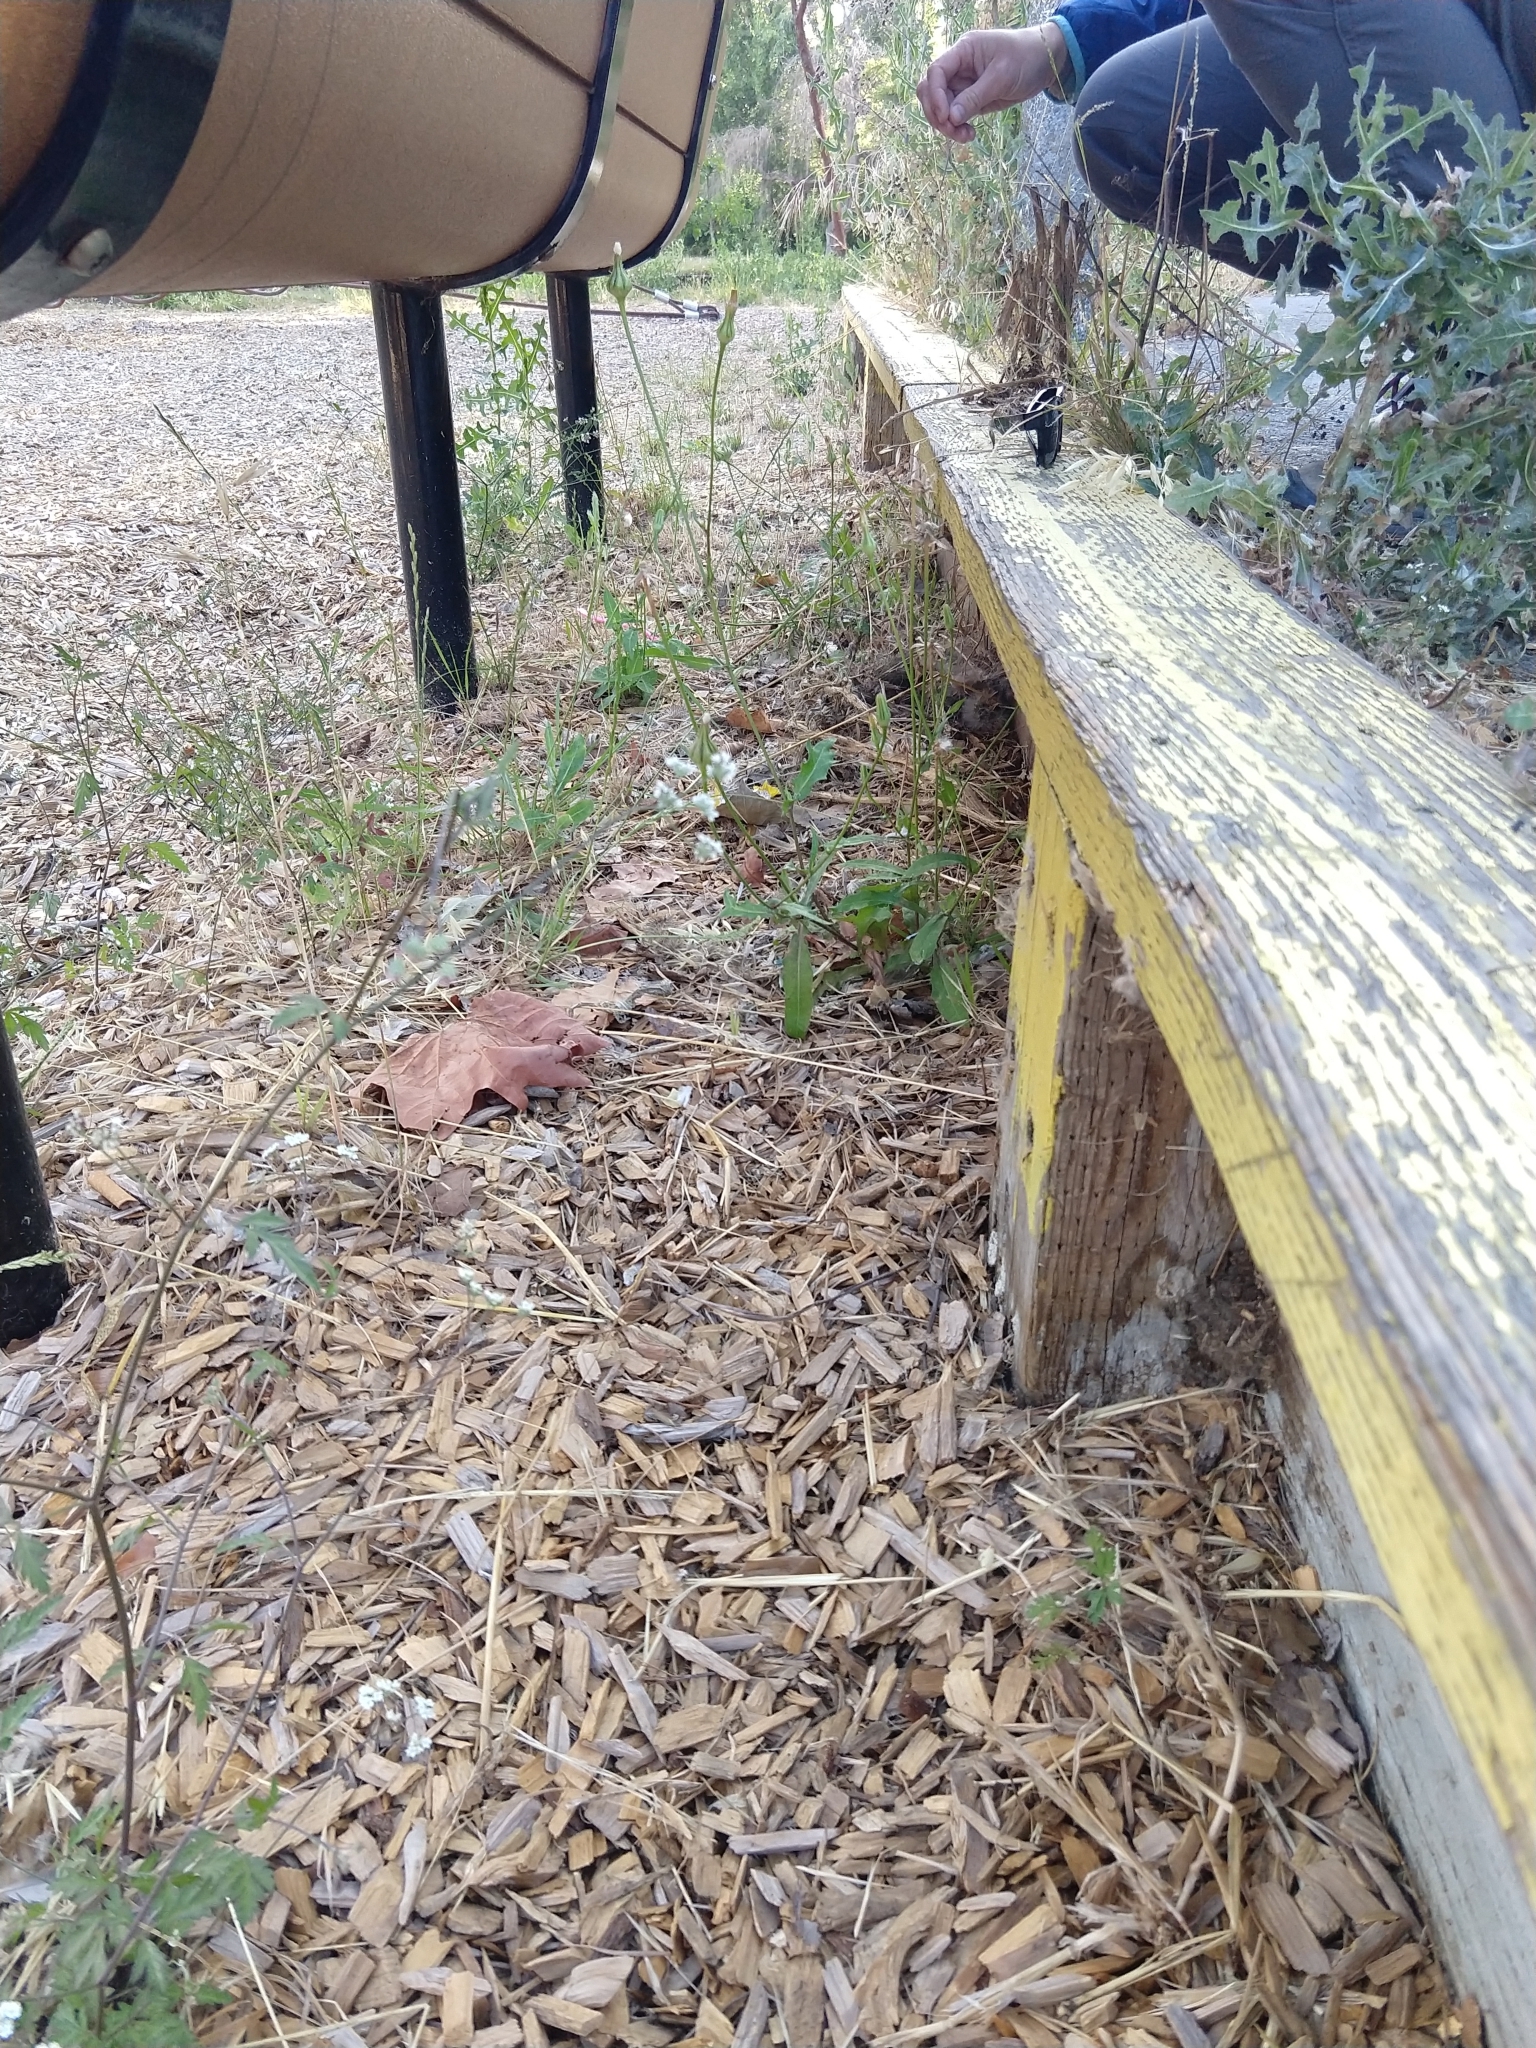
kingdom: Plantae
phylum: Tracheophyta
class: Magnoliopsida
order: Asterales
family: Asteraceae
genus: Urospermum
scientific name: Urospermum picroides
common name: False hawkbit
